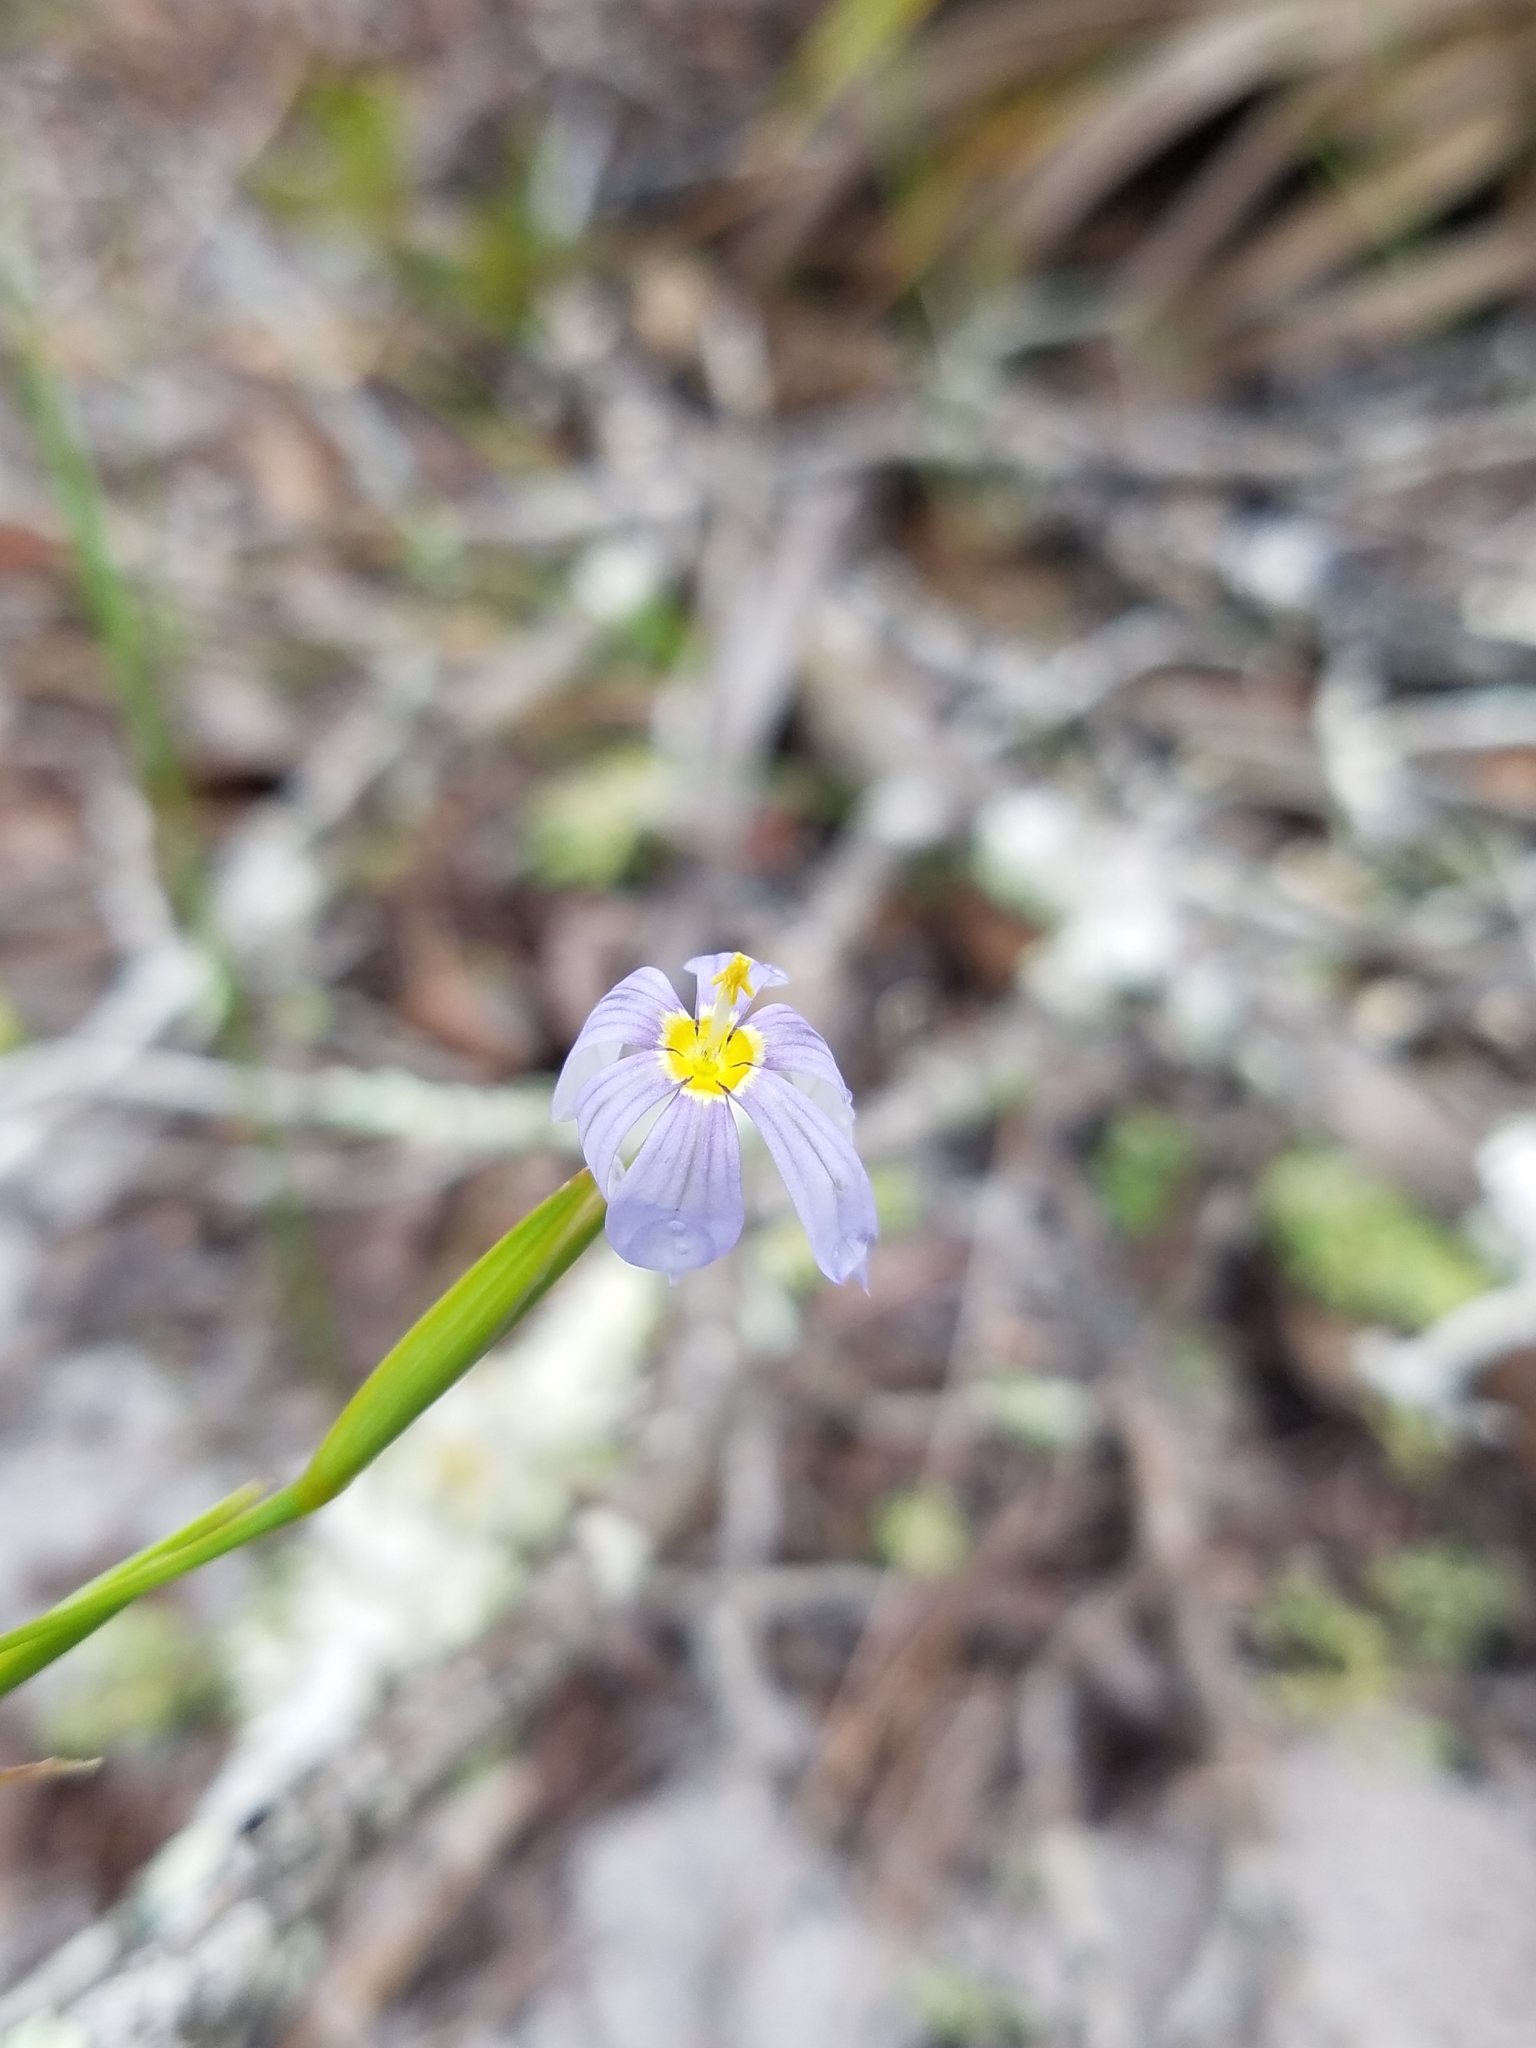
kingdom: Plantae
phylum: Tracheophyta
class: Liliopsida
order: Asparagales
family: Iridaceae
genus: Sisyrinchium
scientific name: Sisyrinchium xerophyllum
